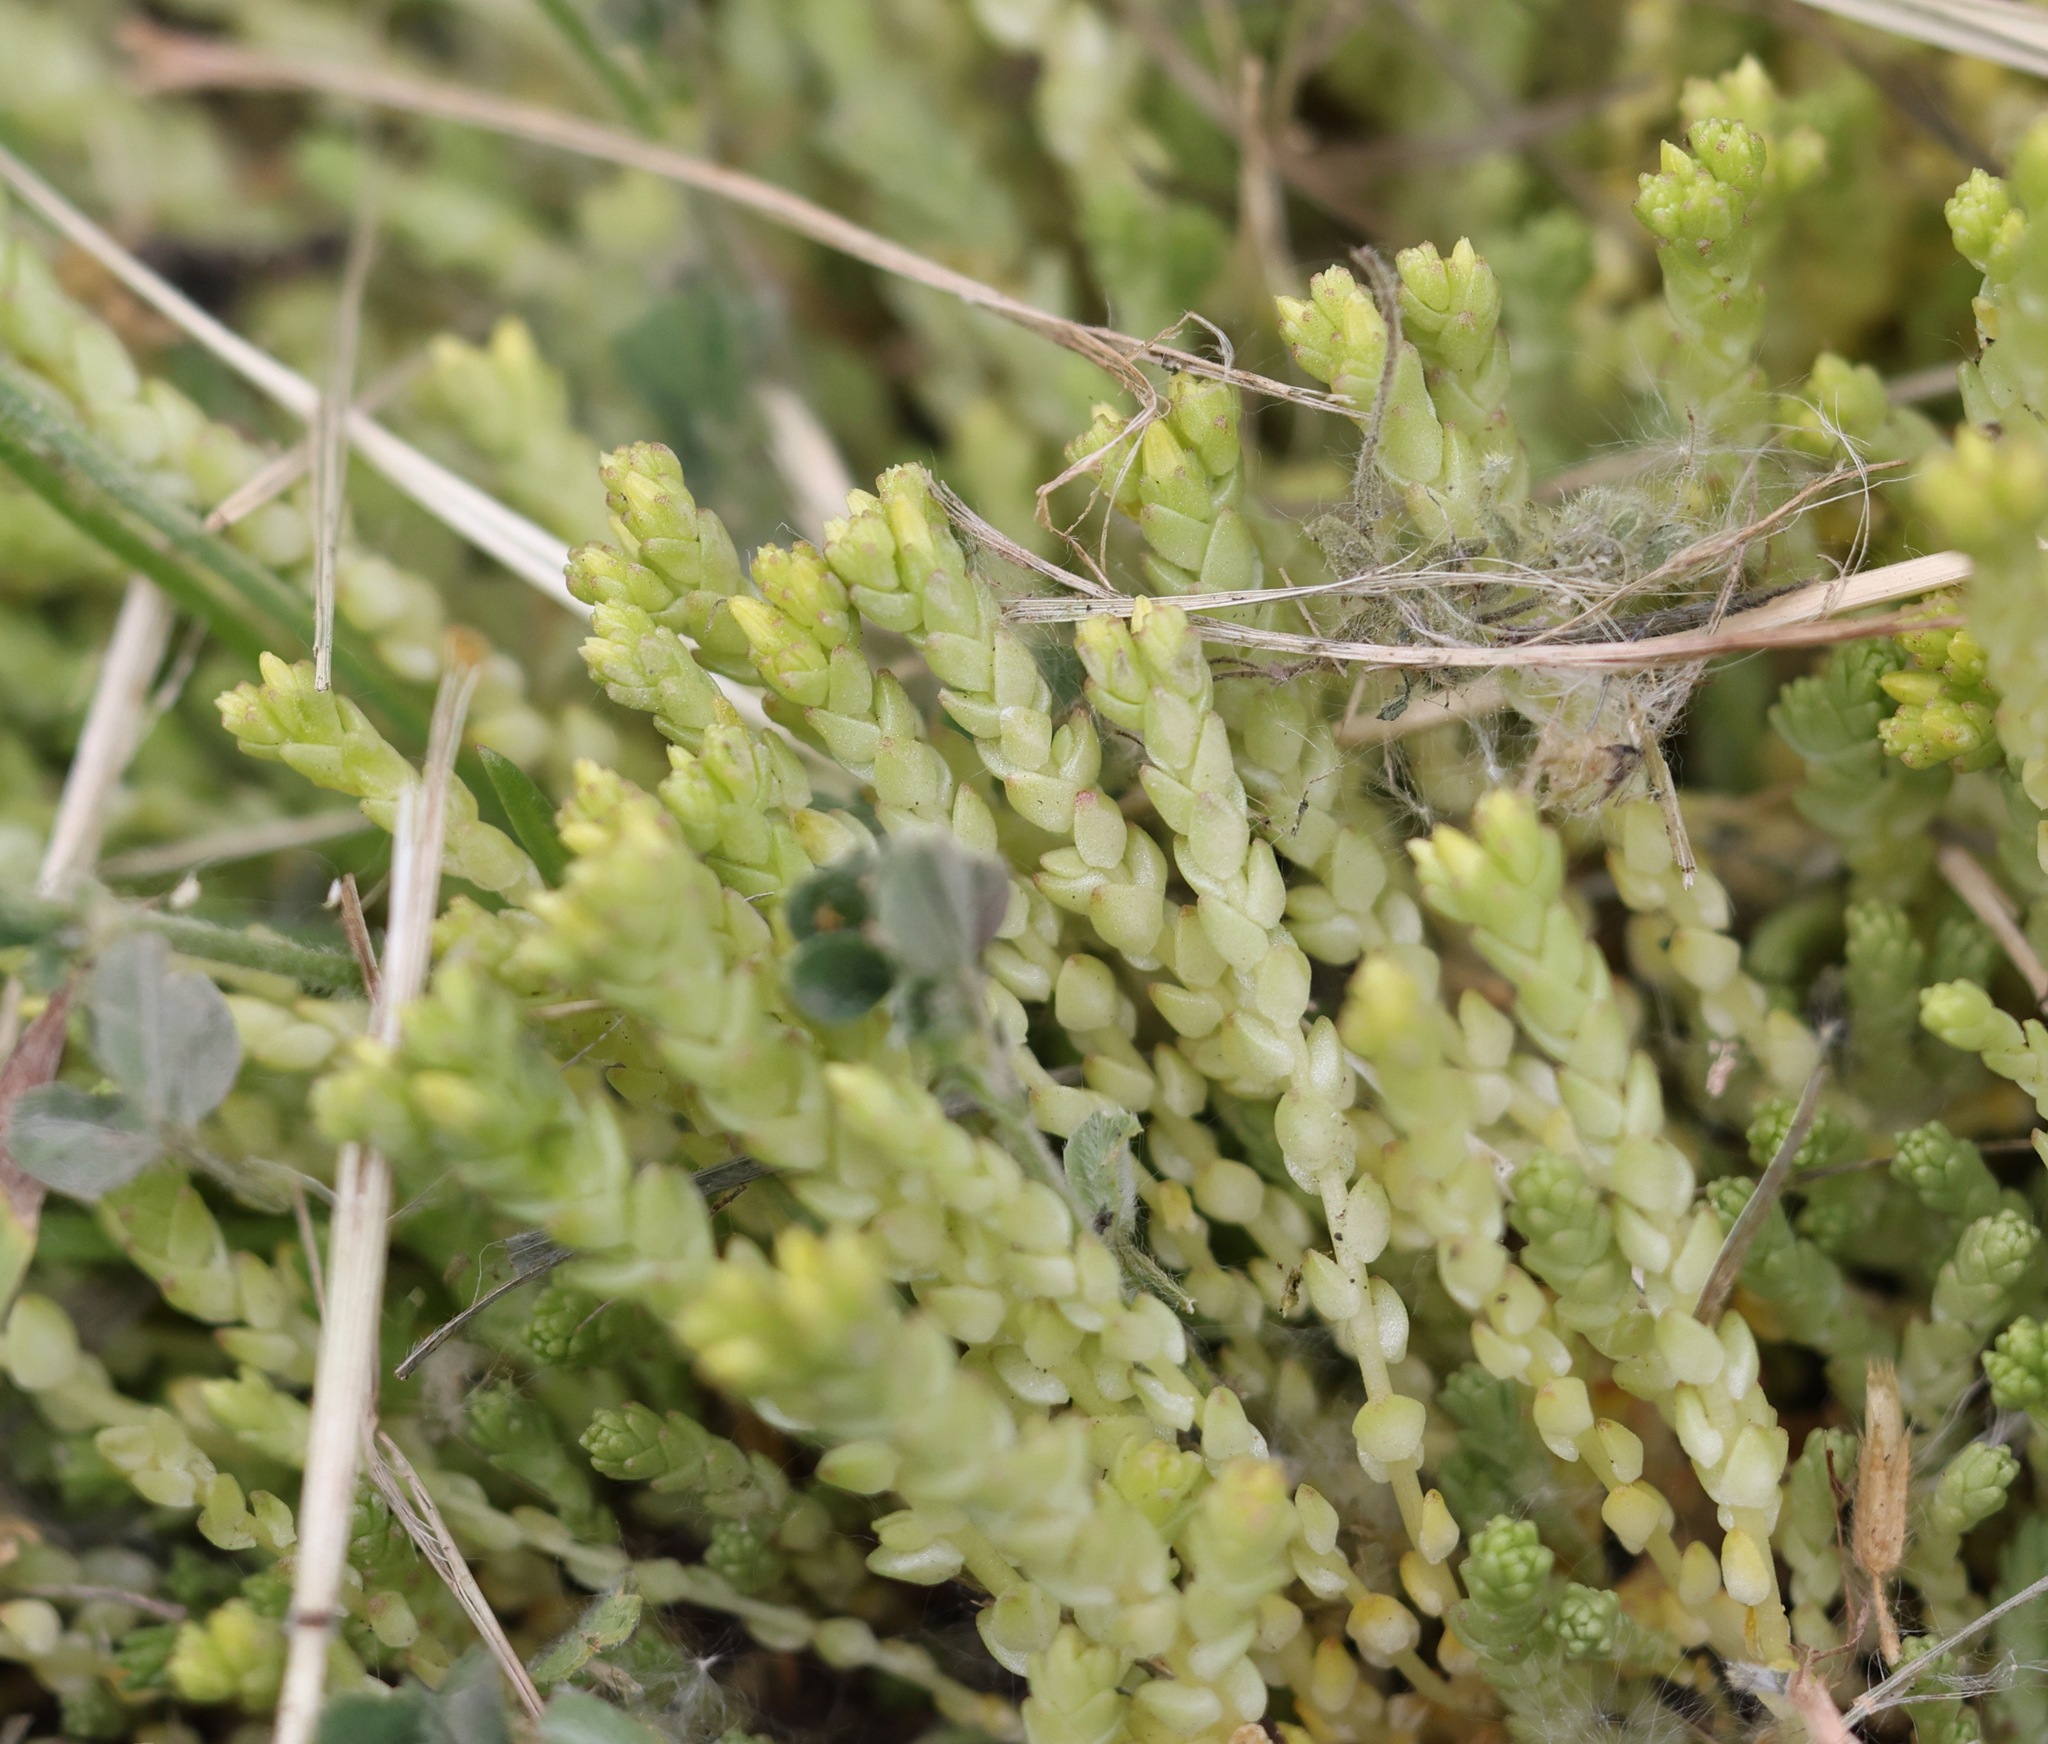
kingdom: Plantae
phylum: Tracheophyta
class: Magnoliopsida
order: Saxifragales
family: Crassulaceae
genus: Sedum
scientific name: Sedum acre
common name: Biting stonecrop
